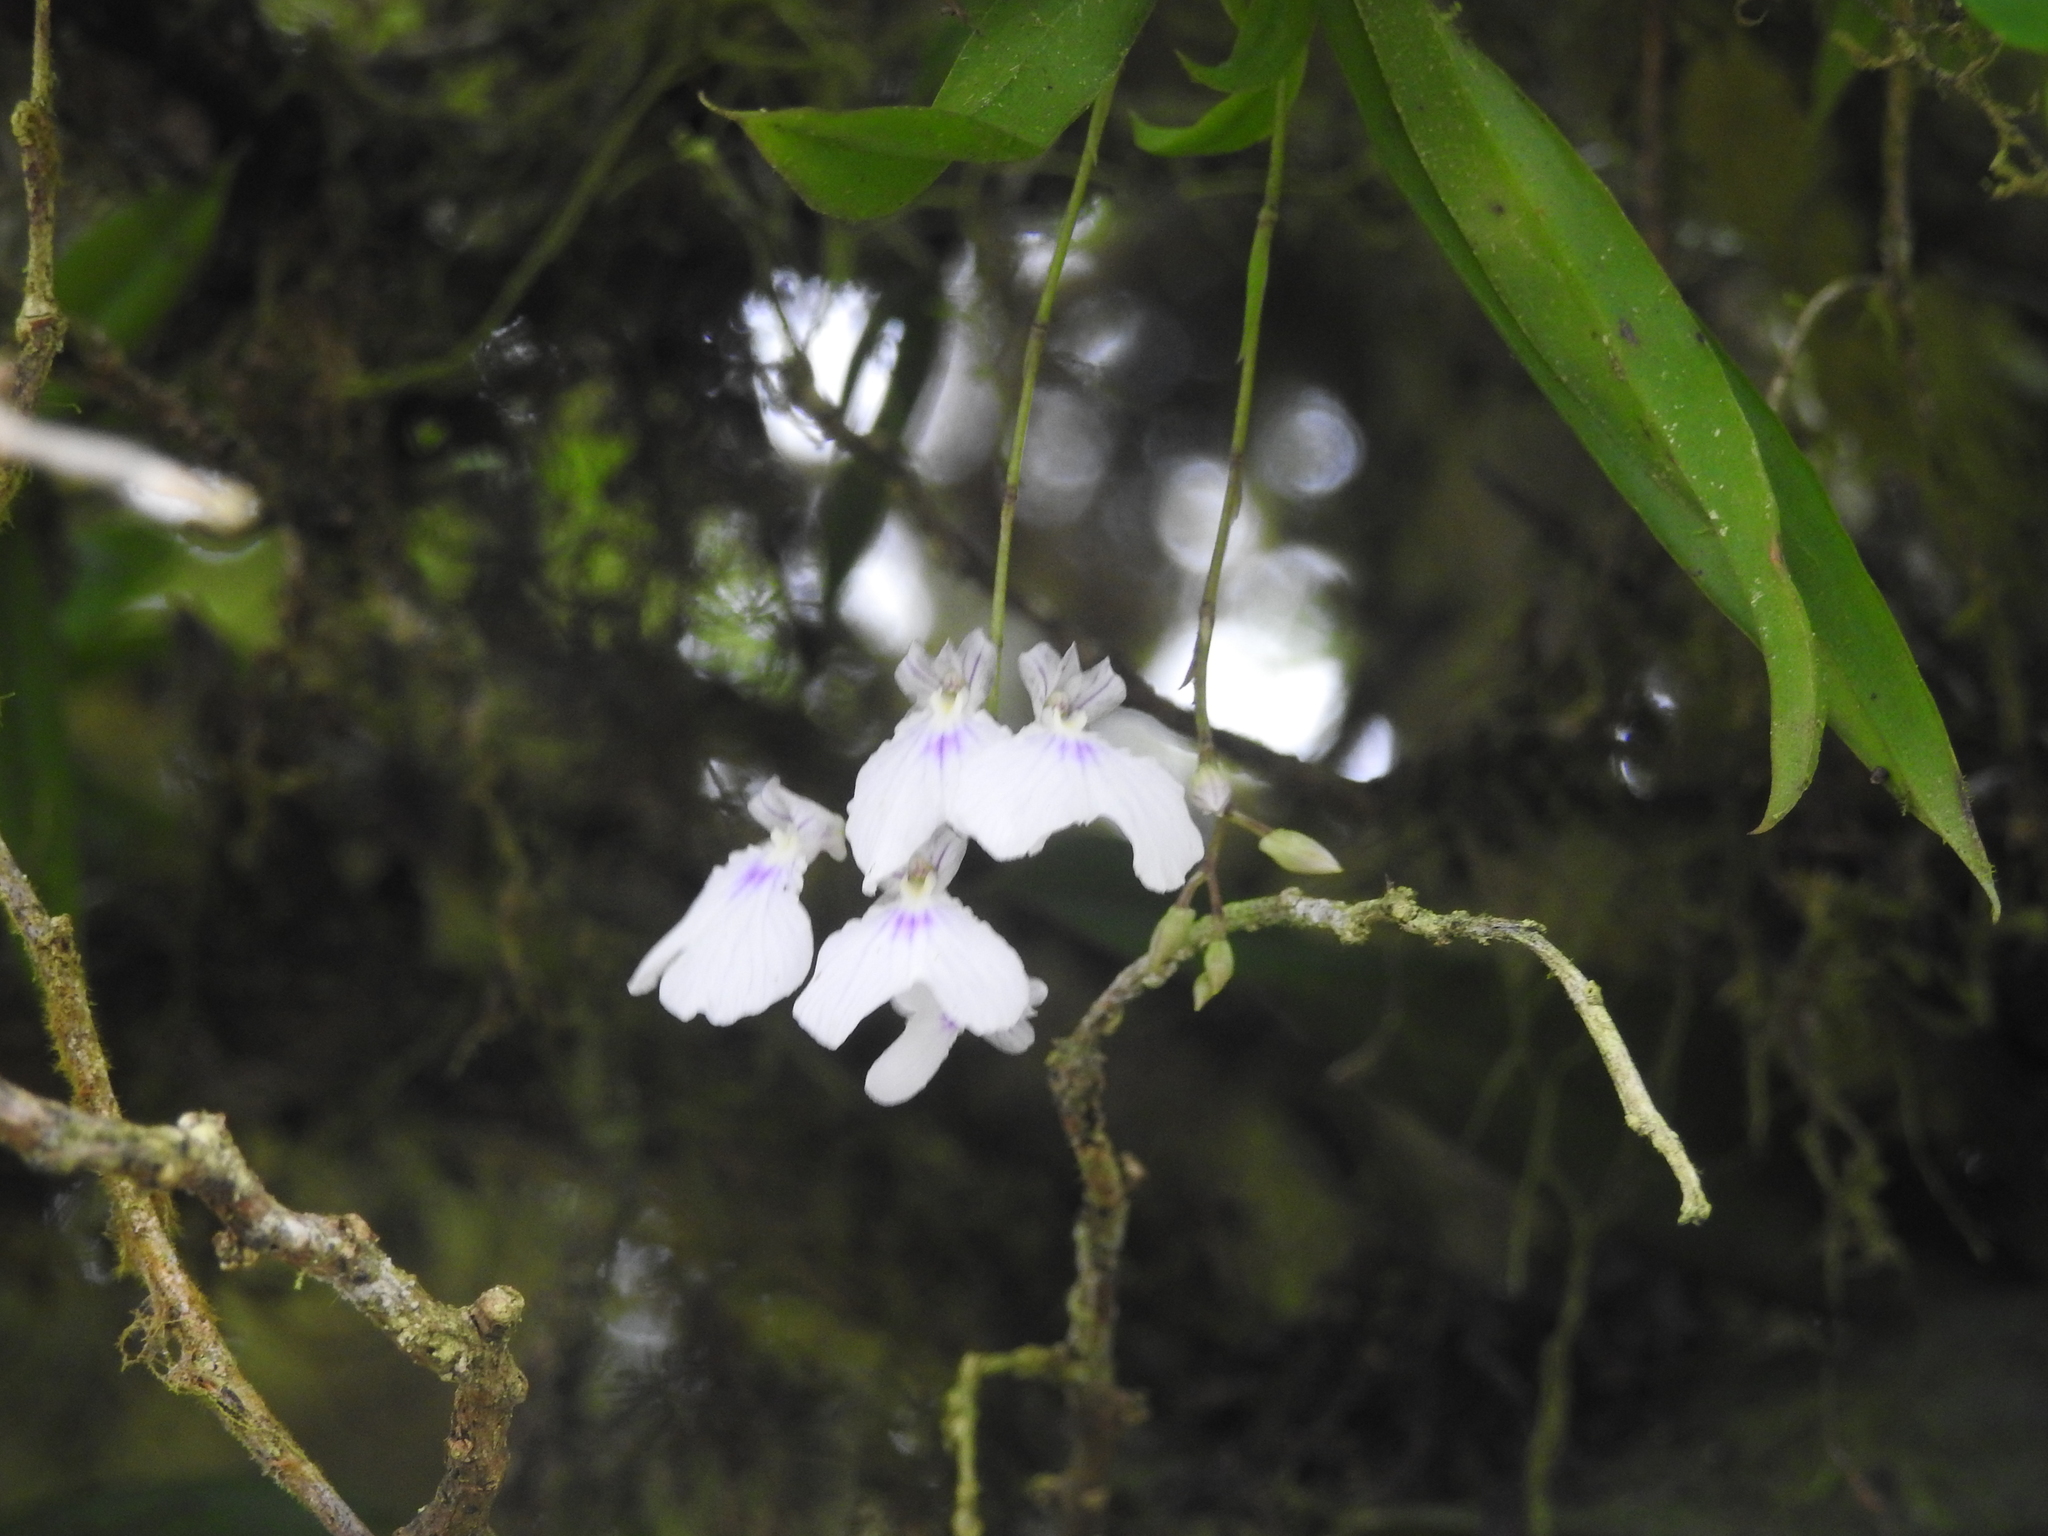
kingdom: Plantae
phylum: Tracheophyta
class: Liliopsida
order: Asparagales
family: Orchidaceae
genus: Ionopsis
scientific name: Ionopsis utricularioides
